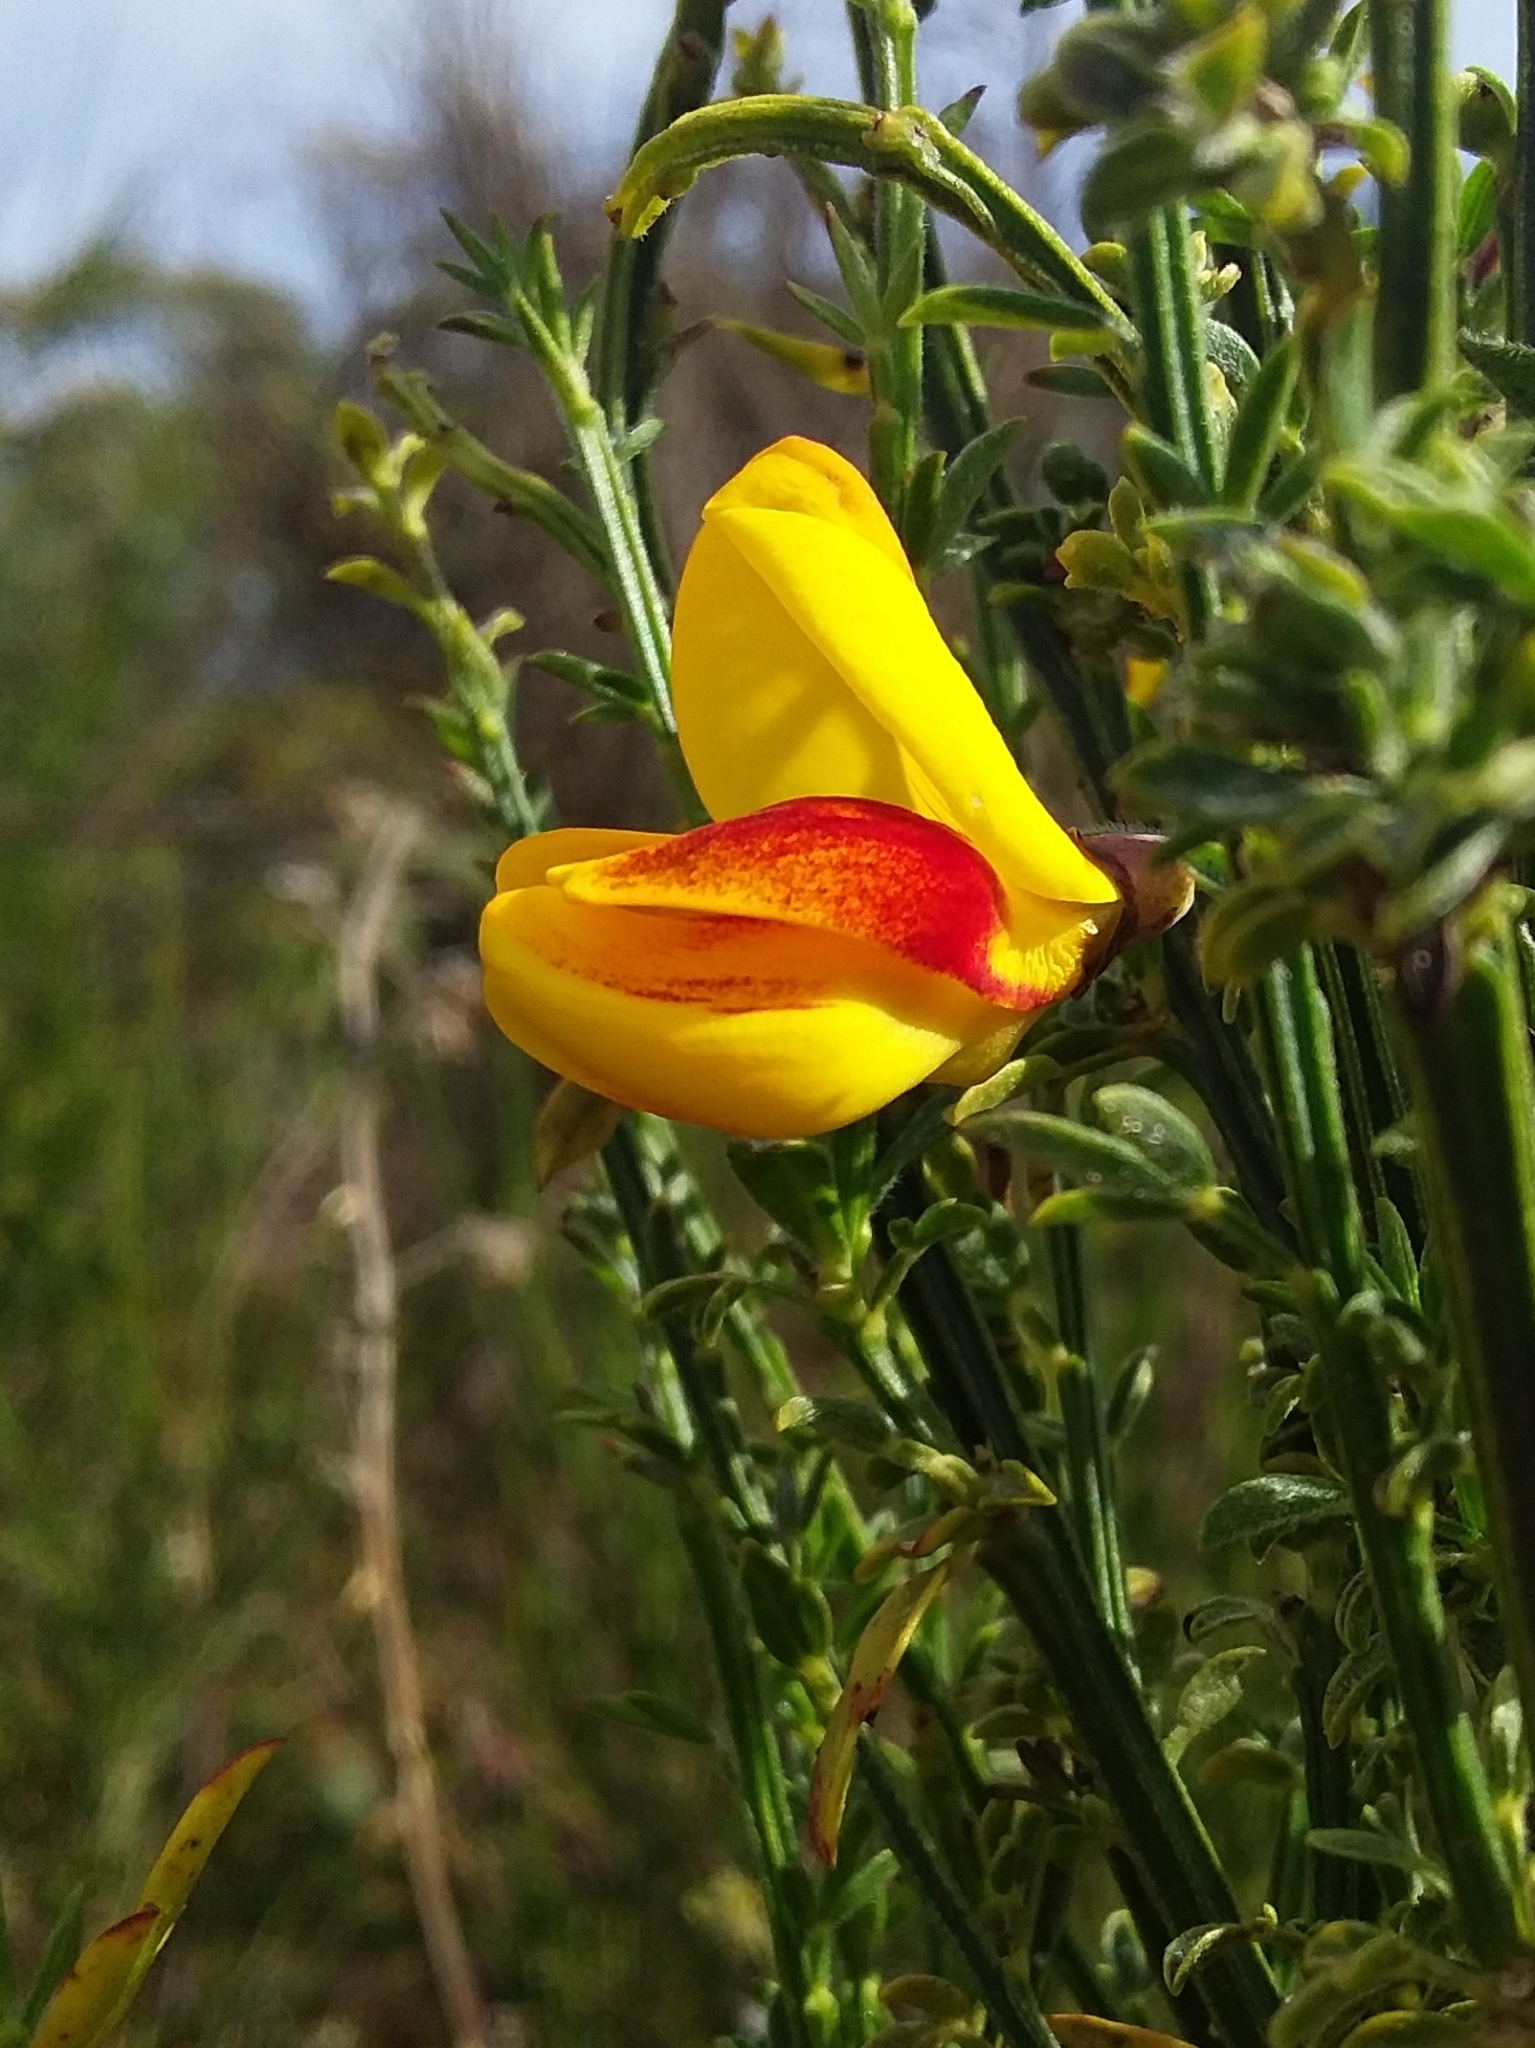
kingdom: Plantae
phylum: Tracheophyta
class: Magnoliopsida
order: Fabales
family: Fabaceae
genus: Cytisus
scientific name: Cytisus scoparius
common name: Scotch broom
